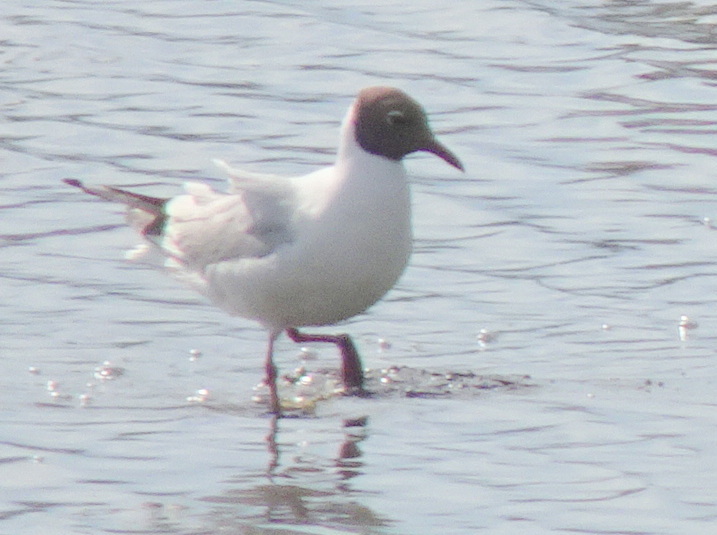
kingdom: Animalia
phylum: Chordata
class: Aves
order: Charadriiformes
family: Laridae
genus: Chroicocephalus
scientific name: Chroicocephalus ridibundus
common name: Black-headed gull
